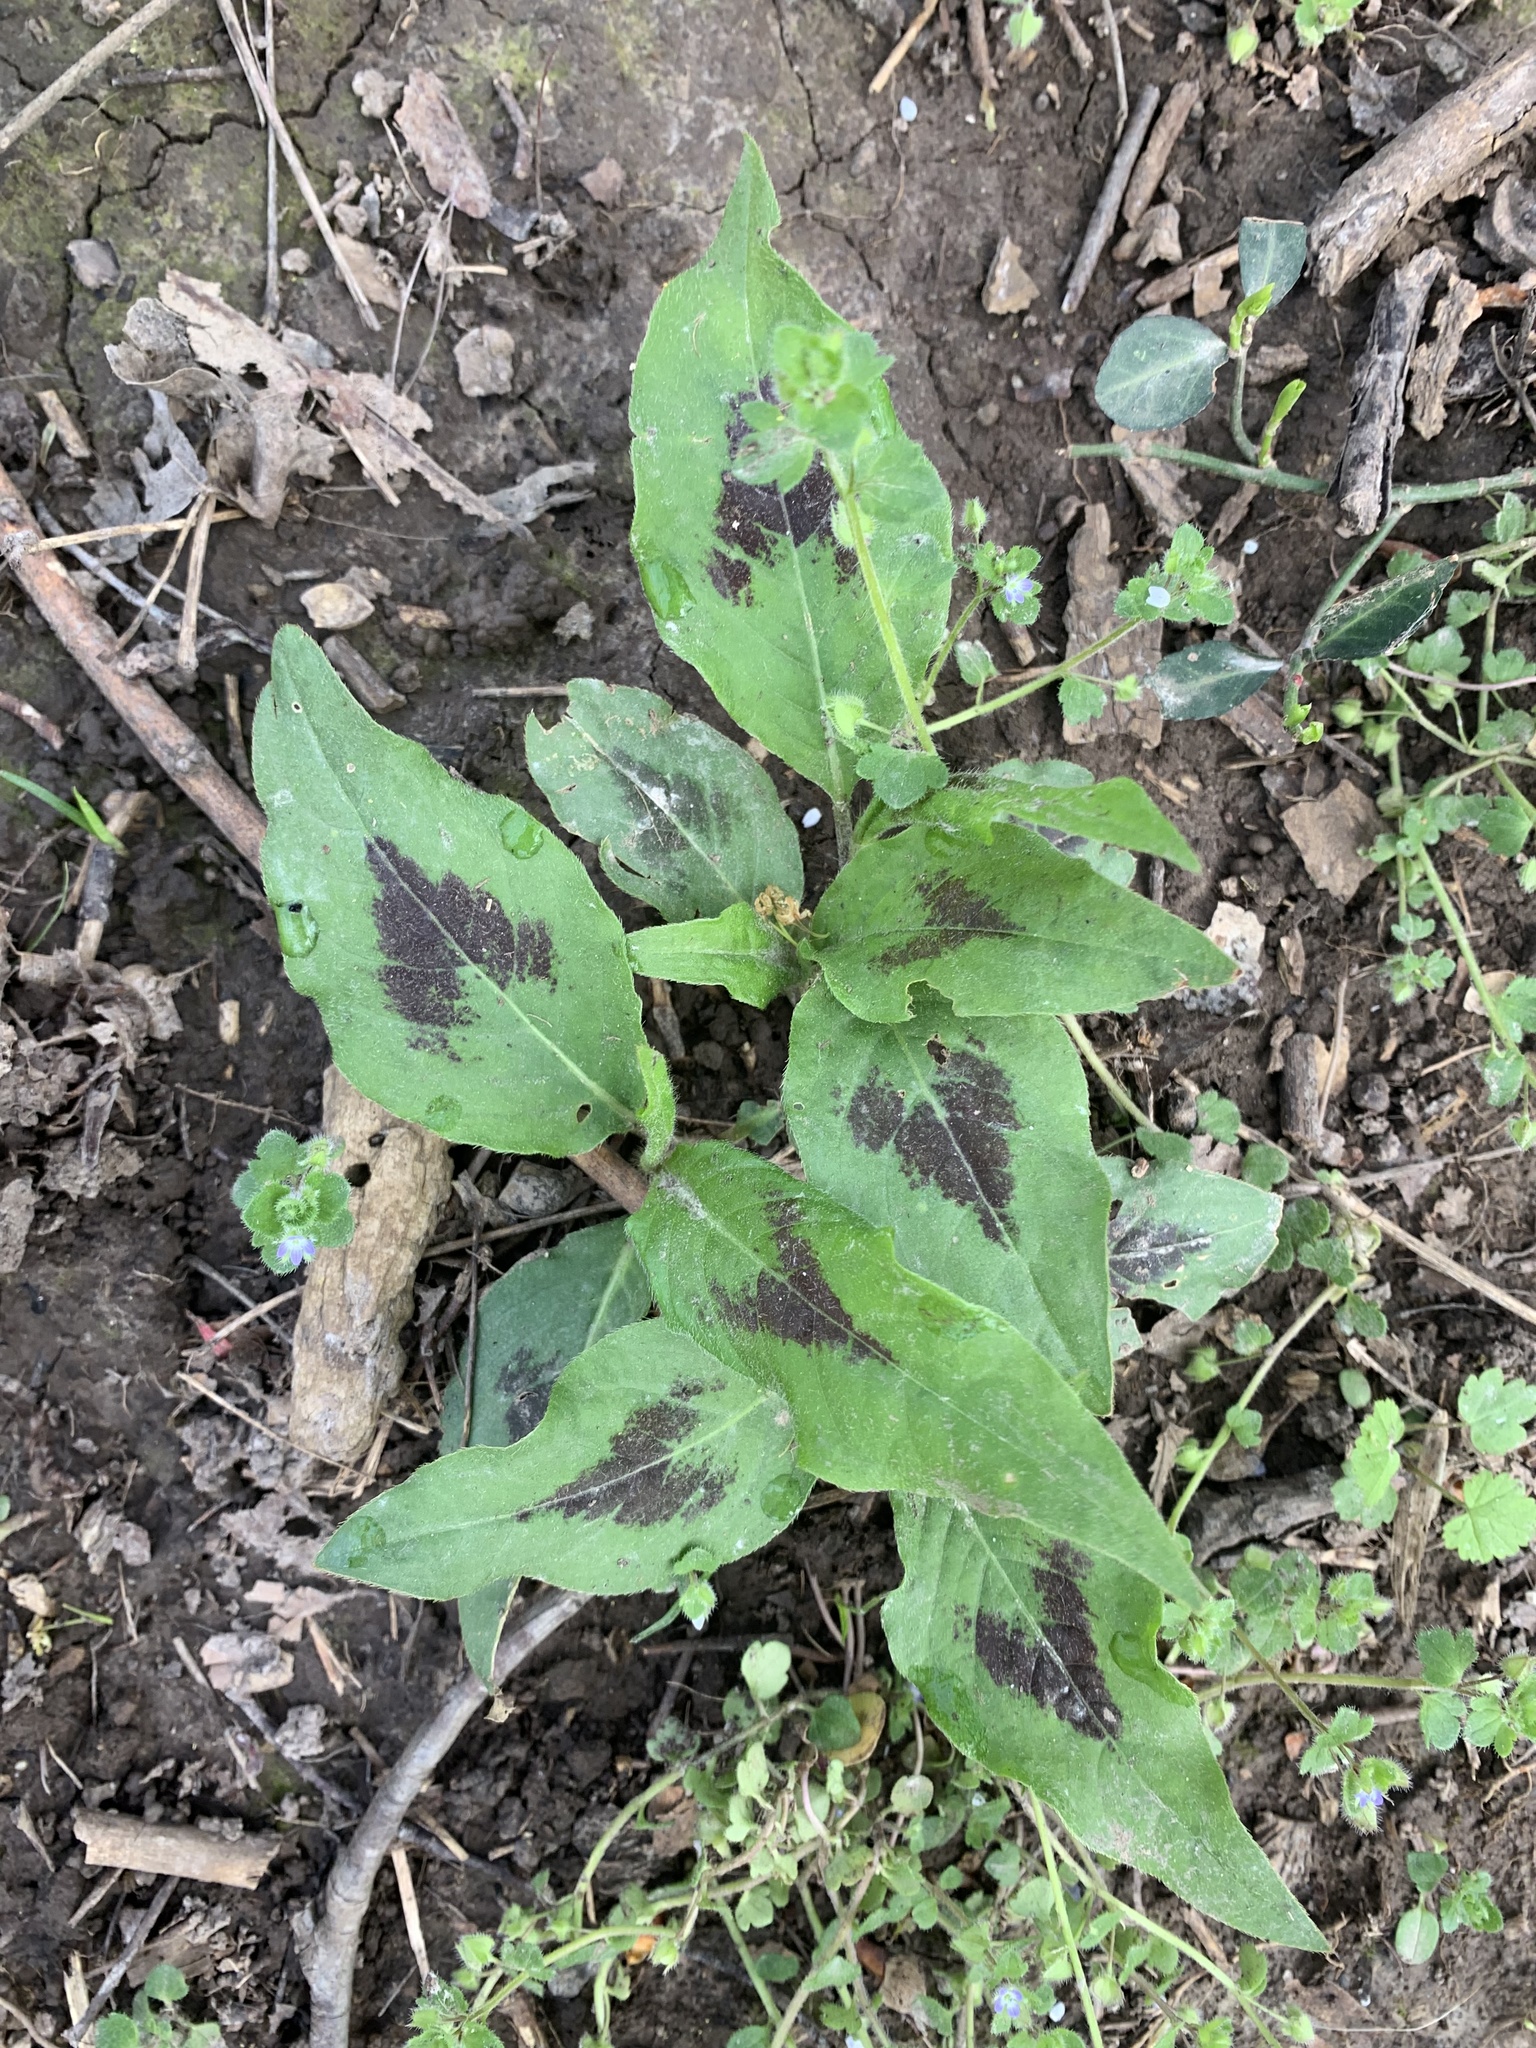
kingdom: Plantae
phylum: Tracheophyta
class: Magnoliopsida
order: Caryophyllales
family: Polygonaceae
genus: Persicaria
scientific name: Persicaria virginiana
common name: Jumpseed
